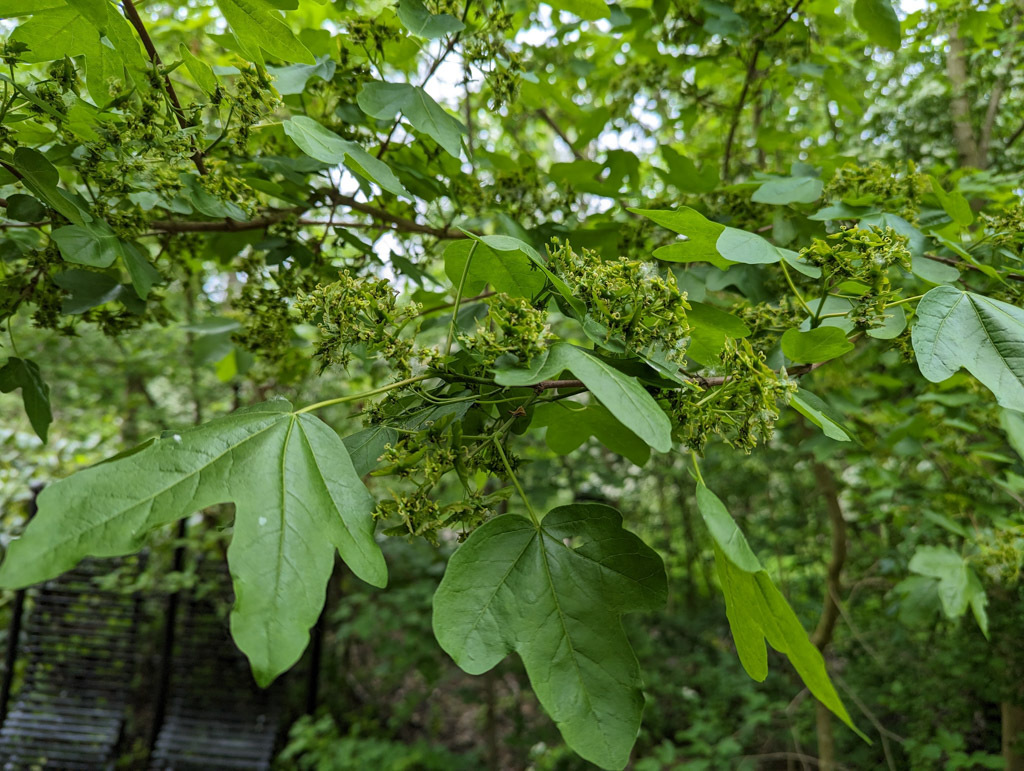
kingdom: Plantae
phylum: Tracheophyta
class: Magnoliopsida
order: Sapindales
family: Sapindaceae
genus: Acer
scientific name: Acer campestre
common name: Field maple
